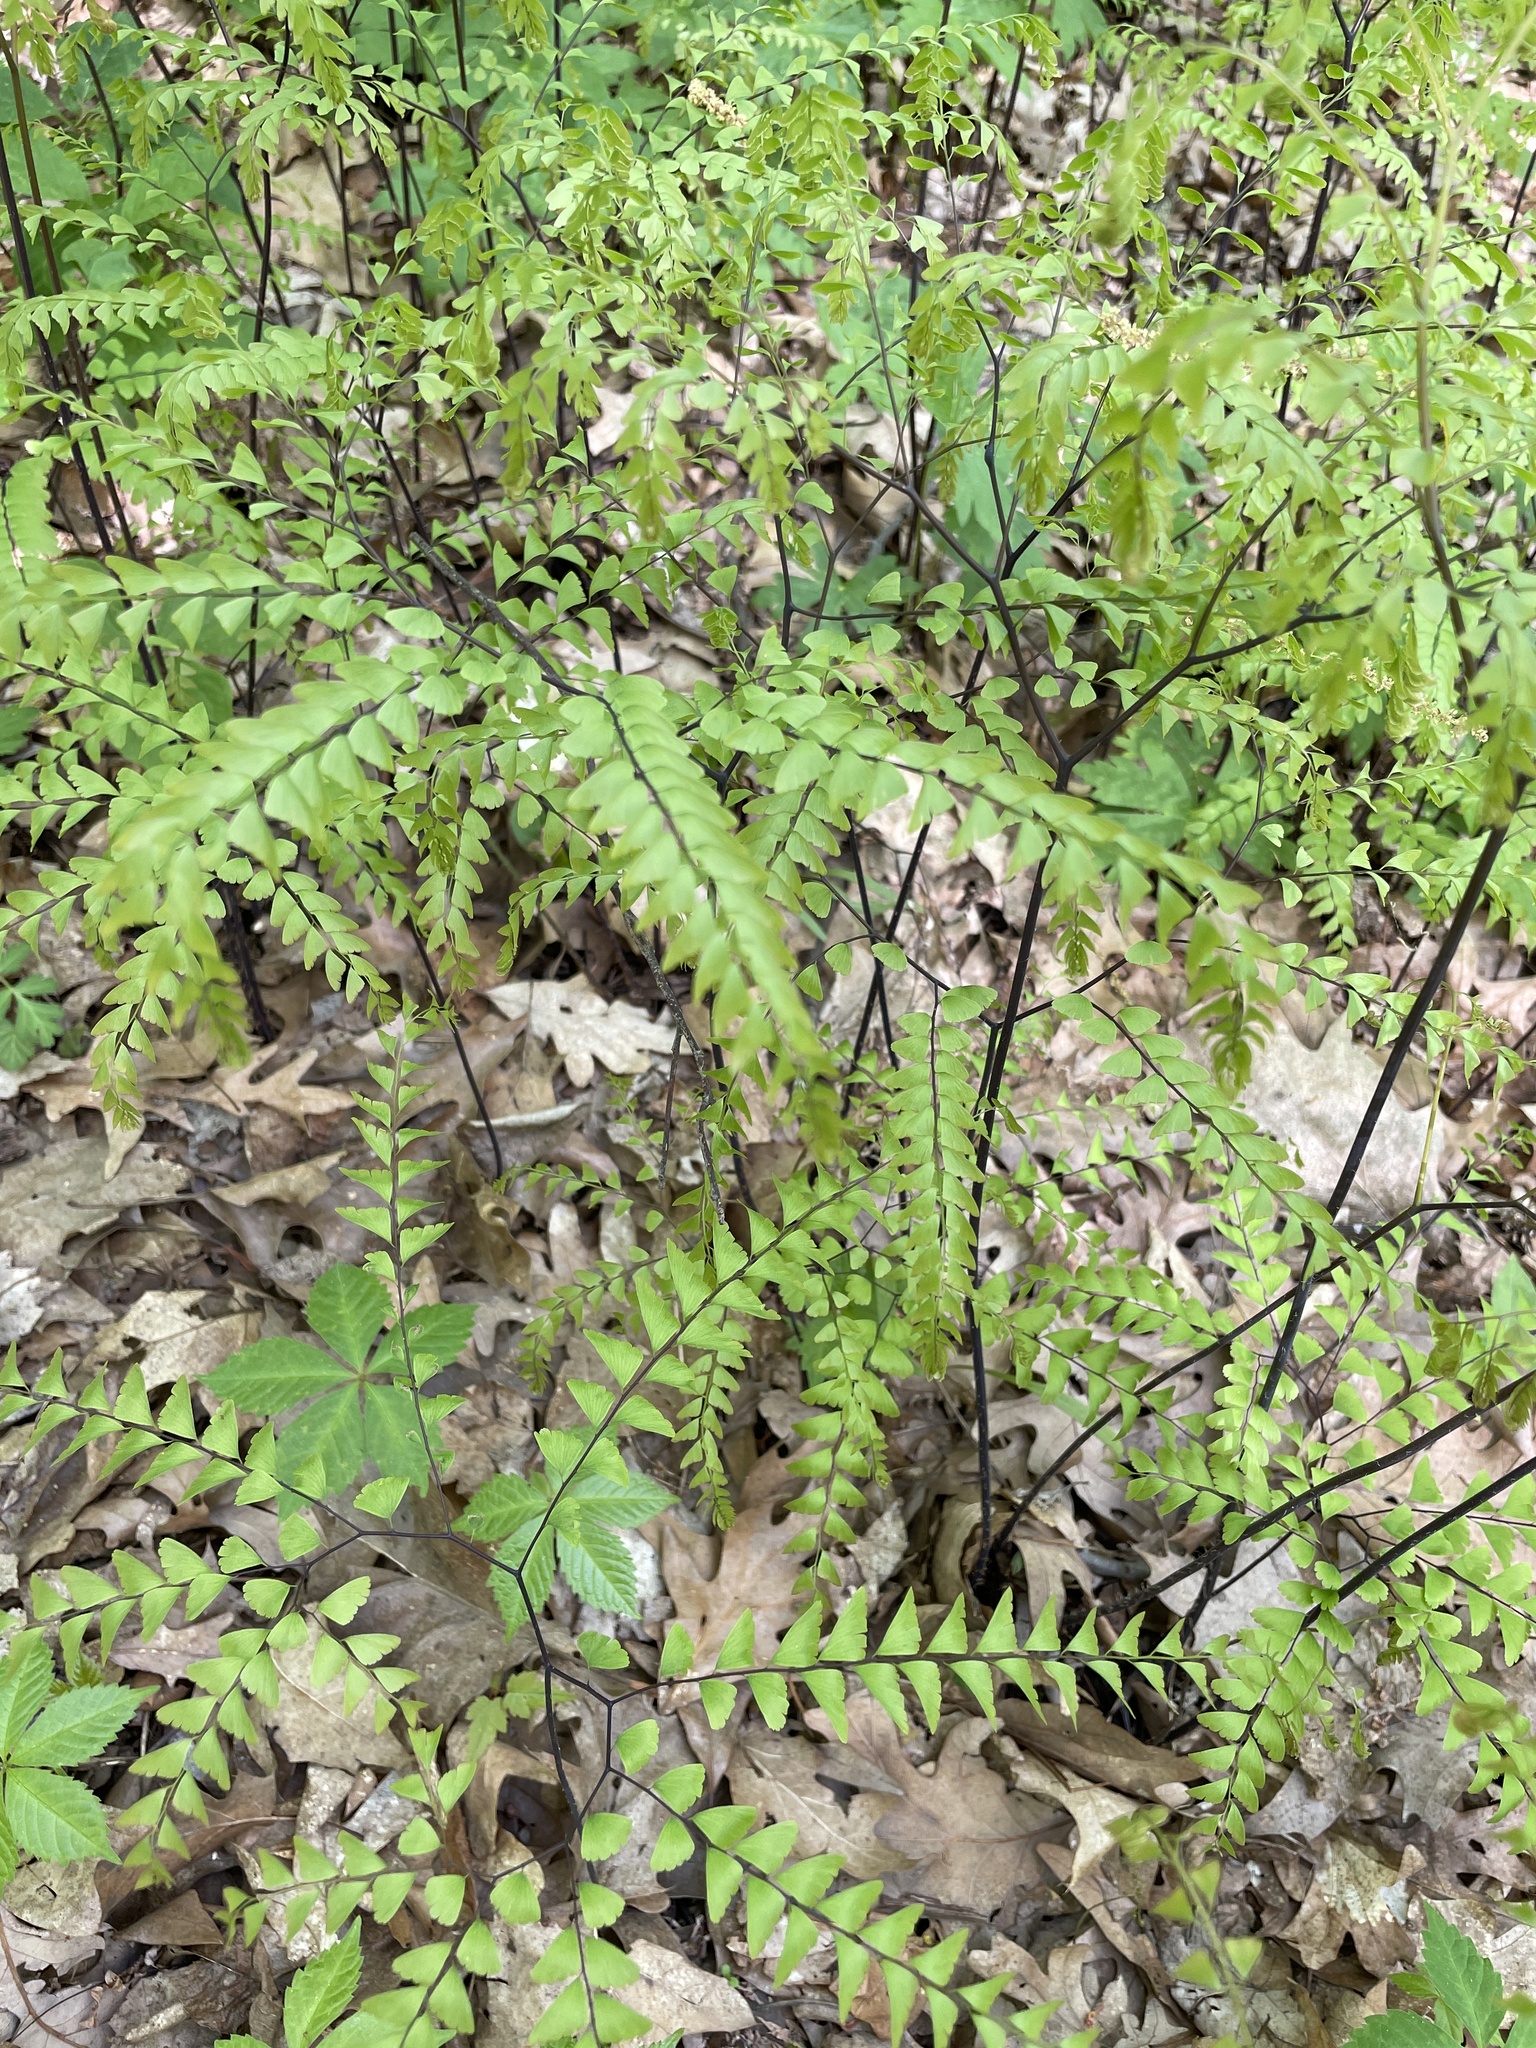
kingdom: Plantae
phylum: Tracheophyta
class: Polypodiopsida
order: Polypodiales
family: Pteridaceae
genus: Adiantum
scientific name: Adiantum pedatum
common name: Five-finger fern
